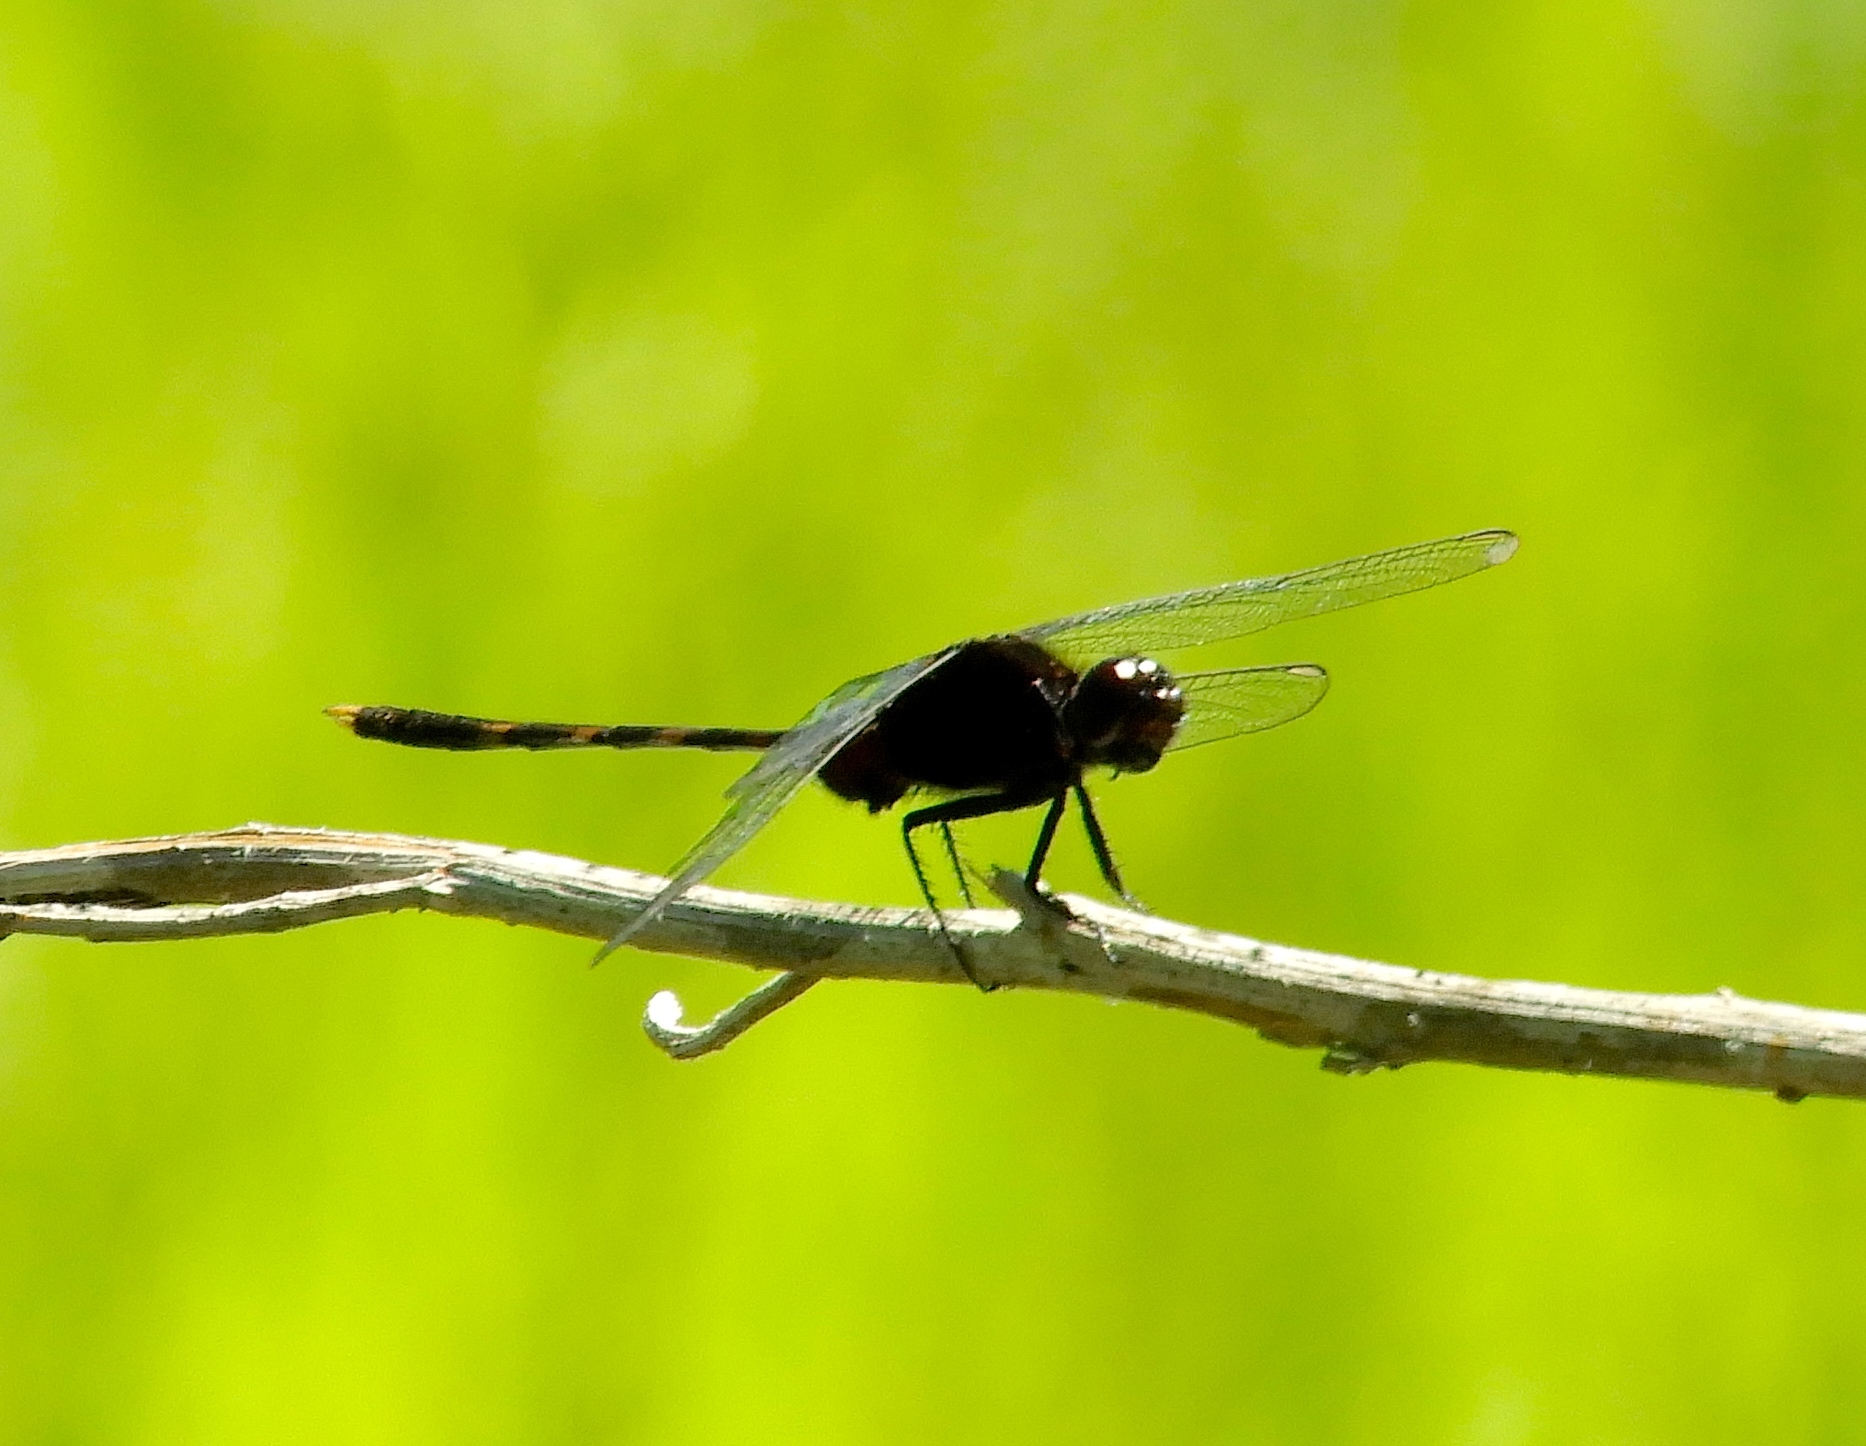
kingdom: Animalia
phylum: Arthropoda
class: Insecta
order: Odonata
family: Libellulidae
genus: Erythemis
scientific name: Erythemis plebeja
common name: Pin-tailed pondhawk
